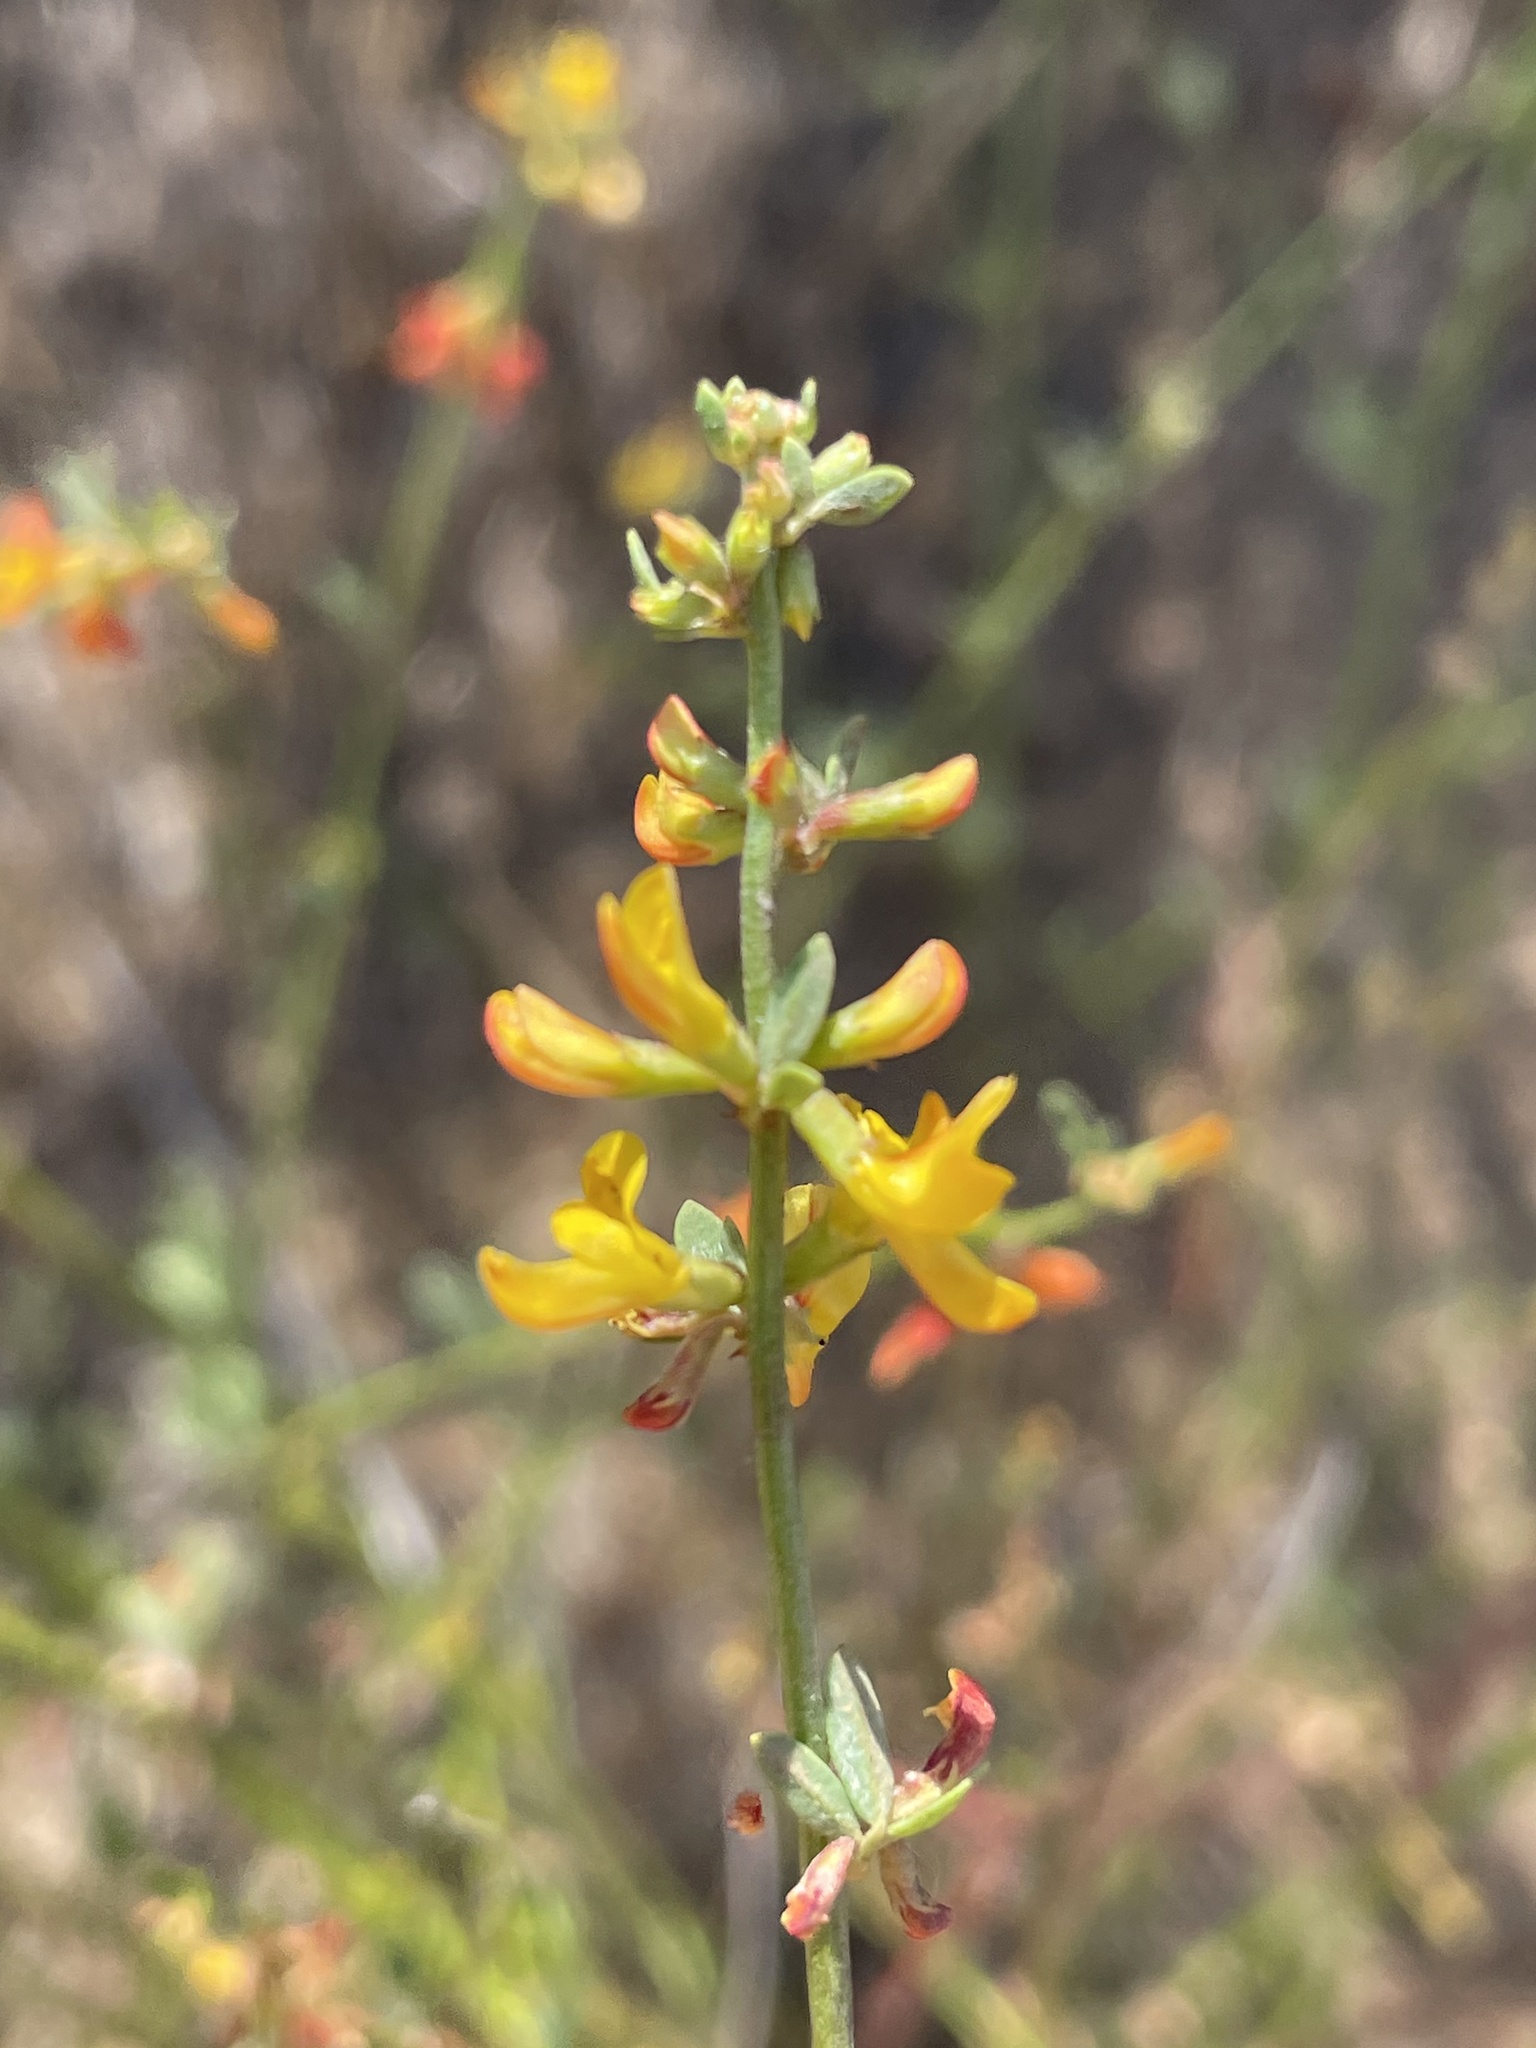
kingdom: Plantae
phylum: Tracheophyta
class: Magnoliopsida
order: Fabales
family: Fabaceae
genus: Acmispon
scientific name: Acmispon glaber
